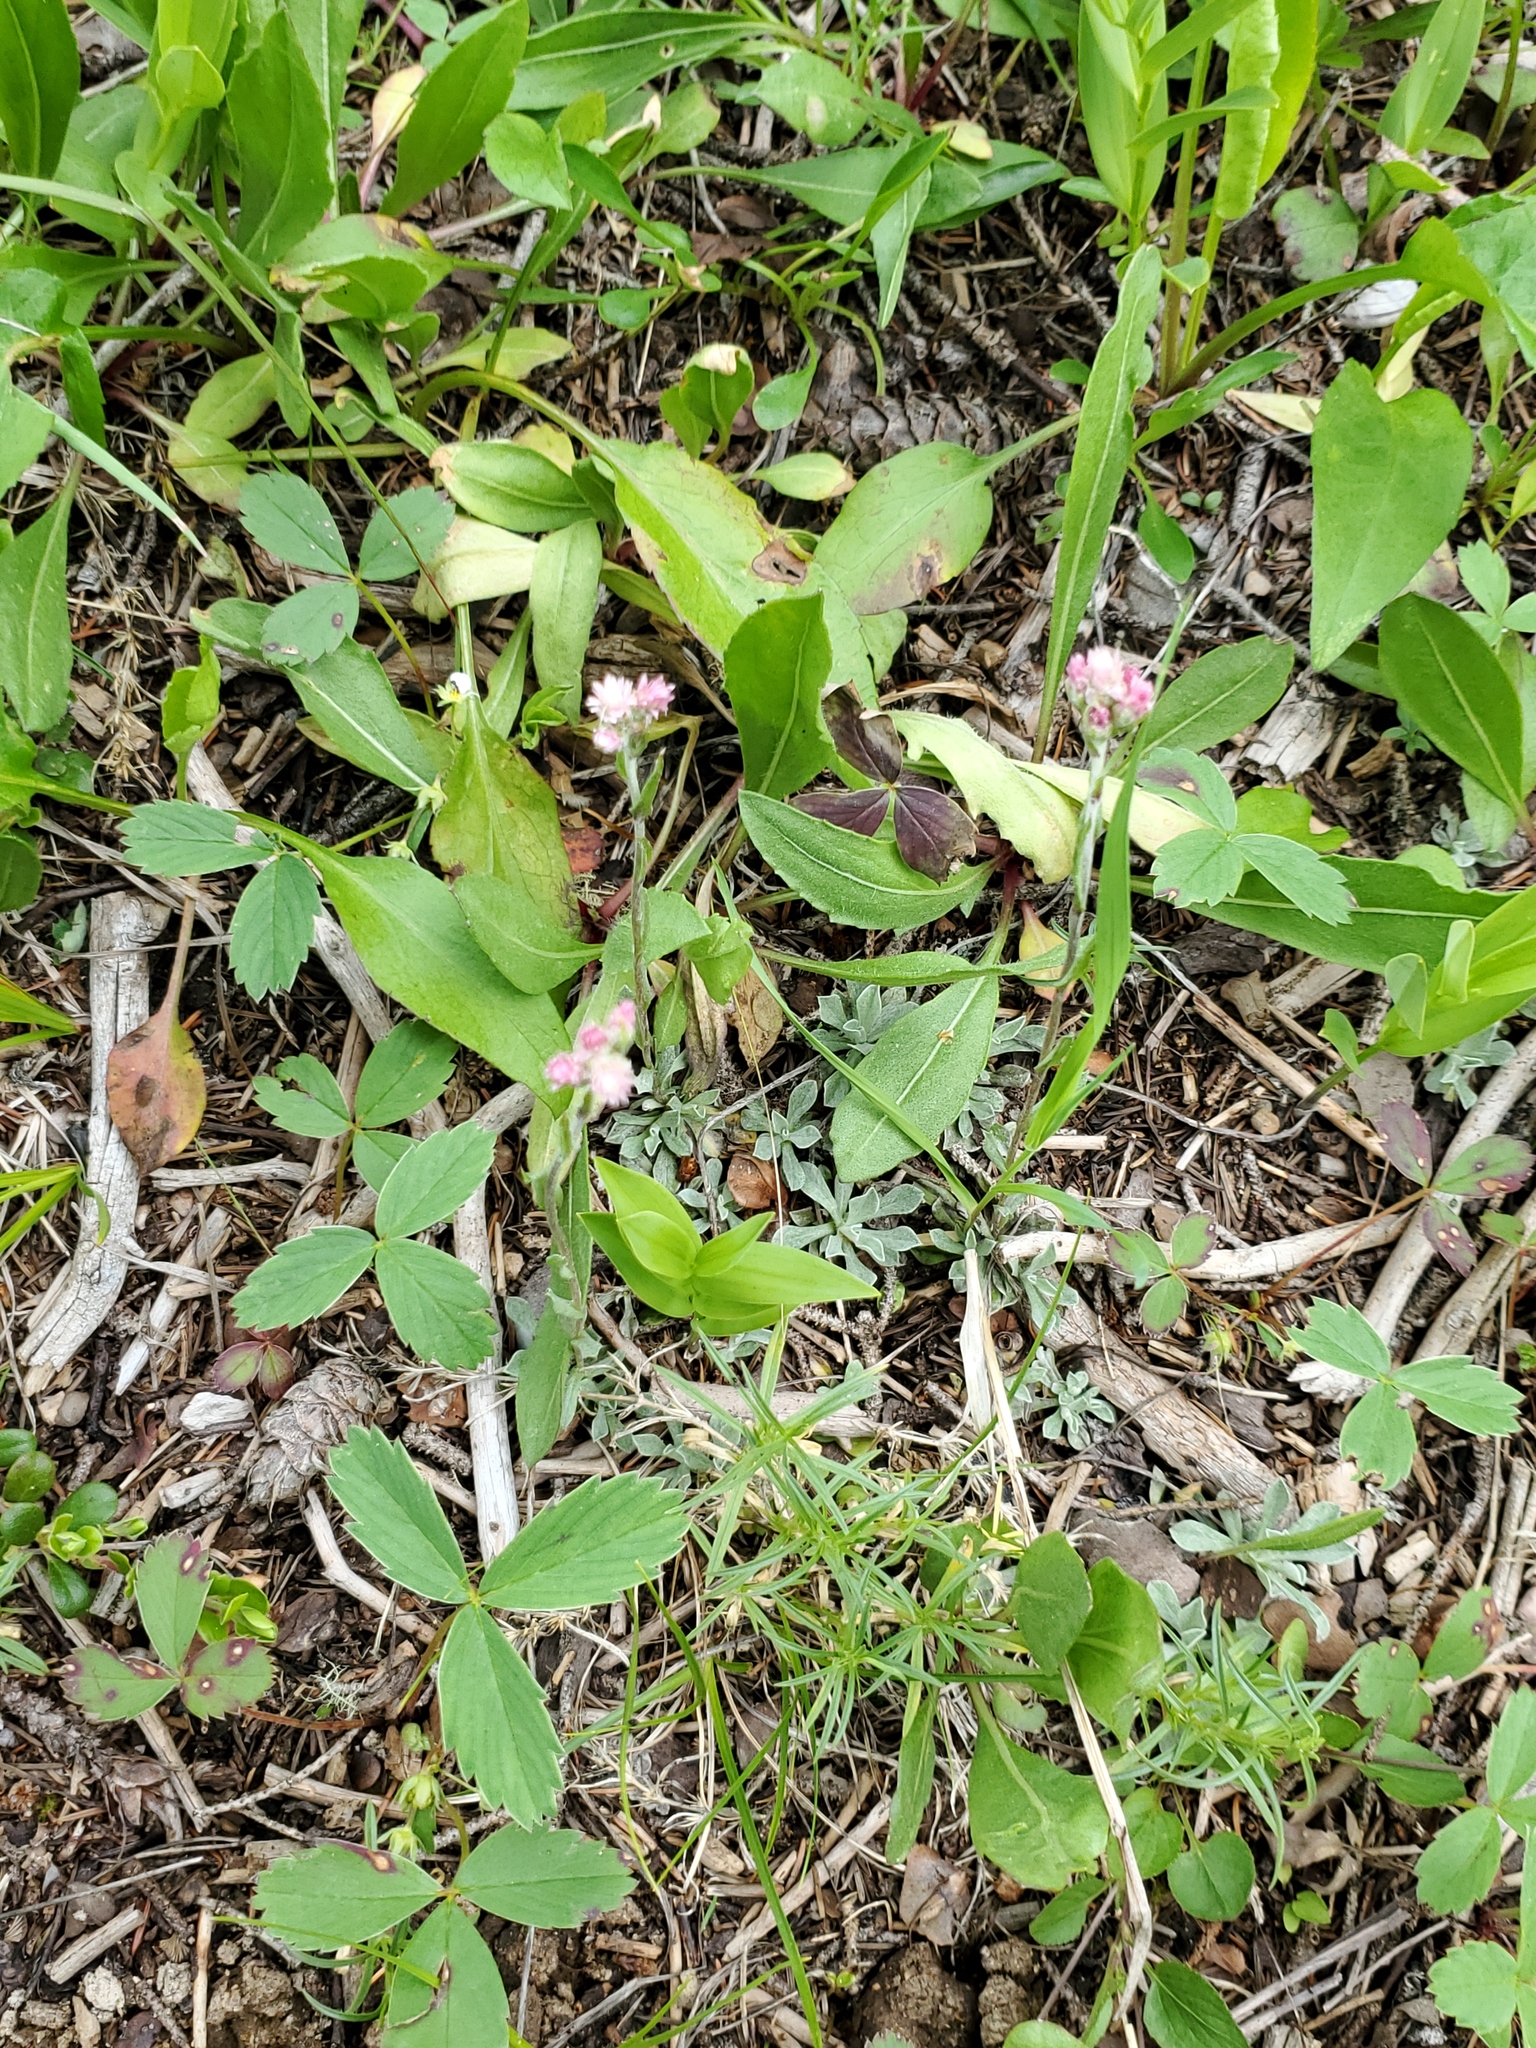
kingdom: Plantae
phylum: Tracheophyta
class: Magnoliopsida
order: Asterales
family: Asteraceae
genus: Antennaria
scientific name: Antennaria rosea
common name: Rosy pussytoes
